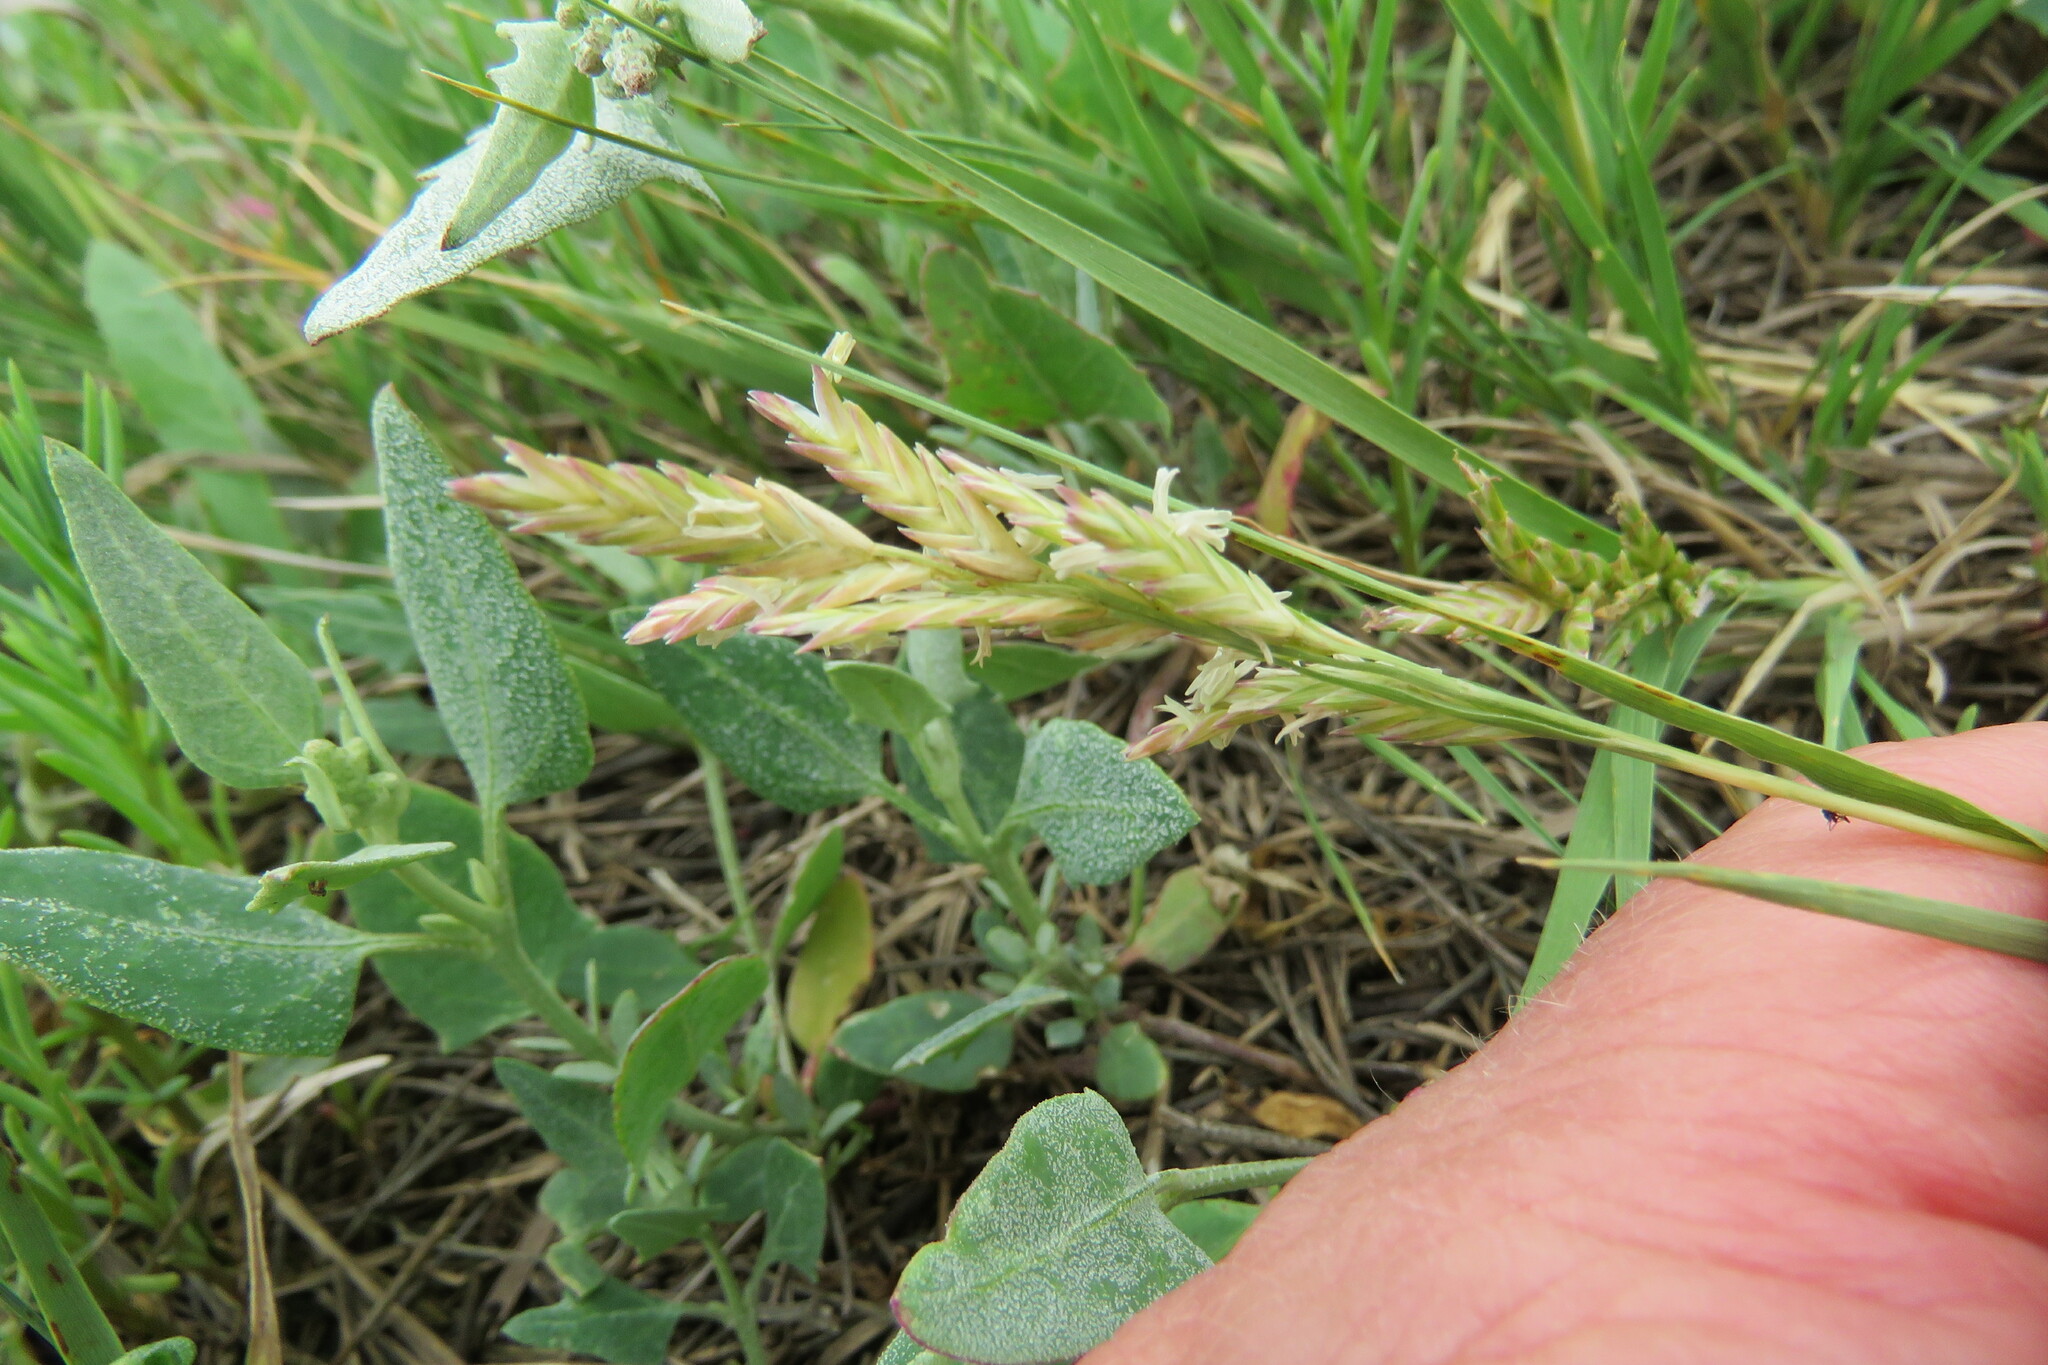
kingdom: Plantae
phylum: Tracheophyta
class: Liliopsida
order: Poales
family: Poaceae
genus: Distichlis
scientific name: Distichlis spicata
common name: Saltgrass
